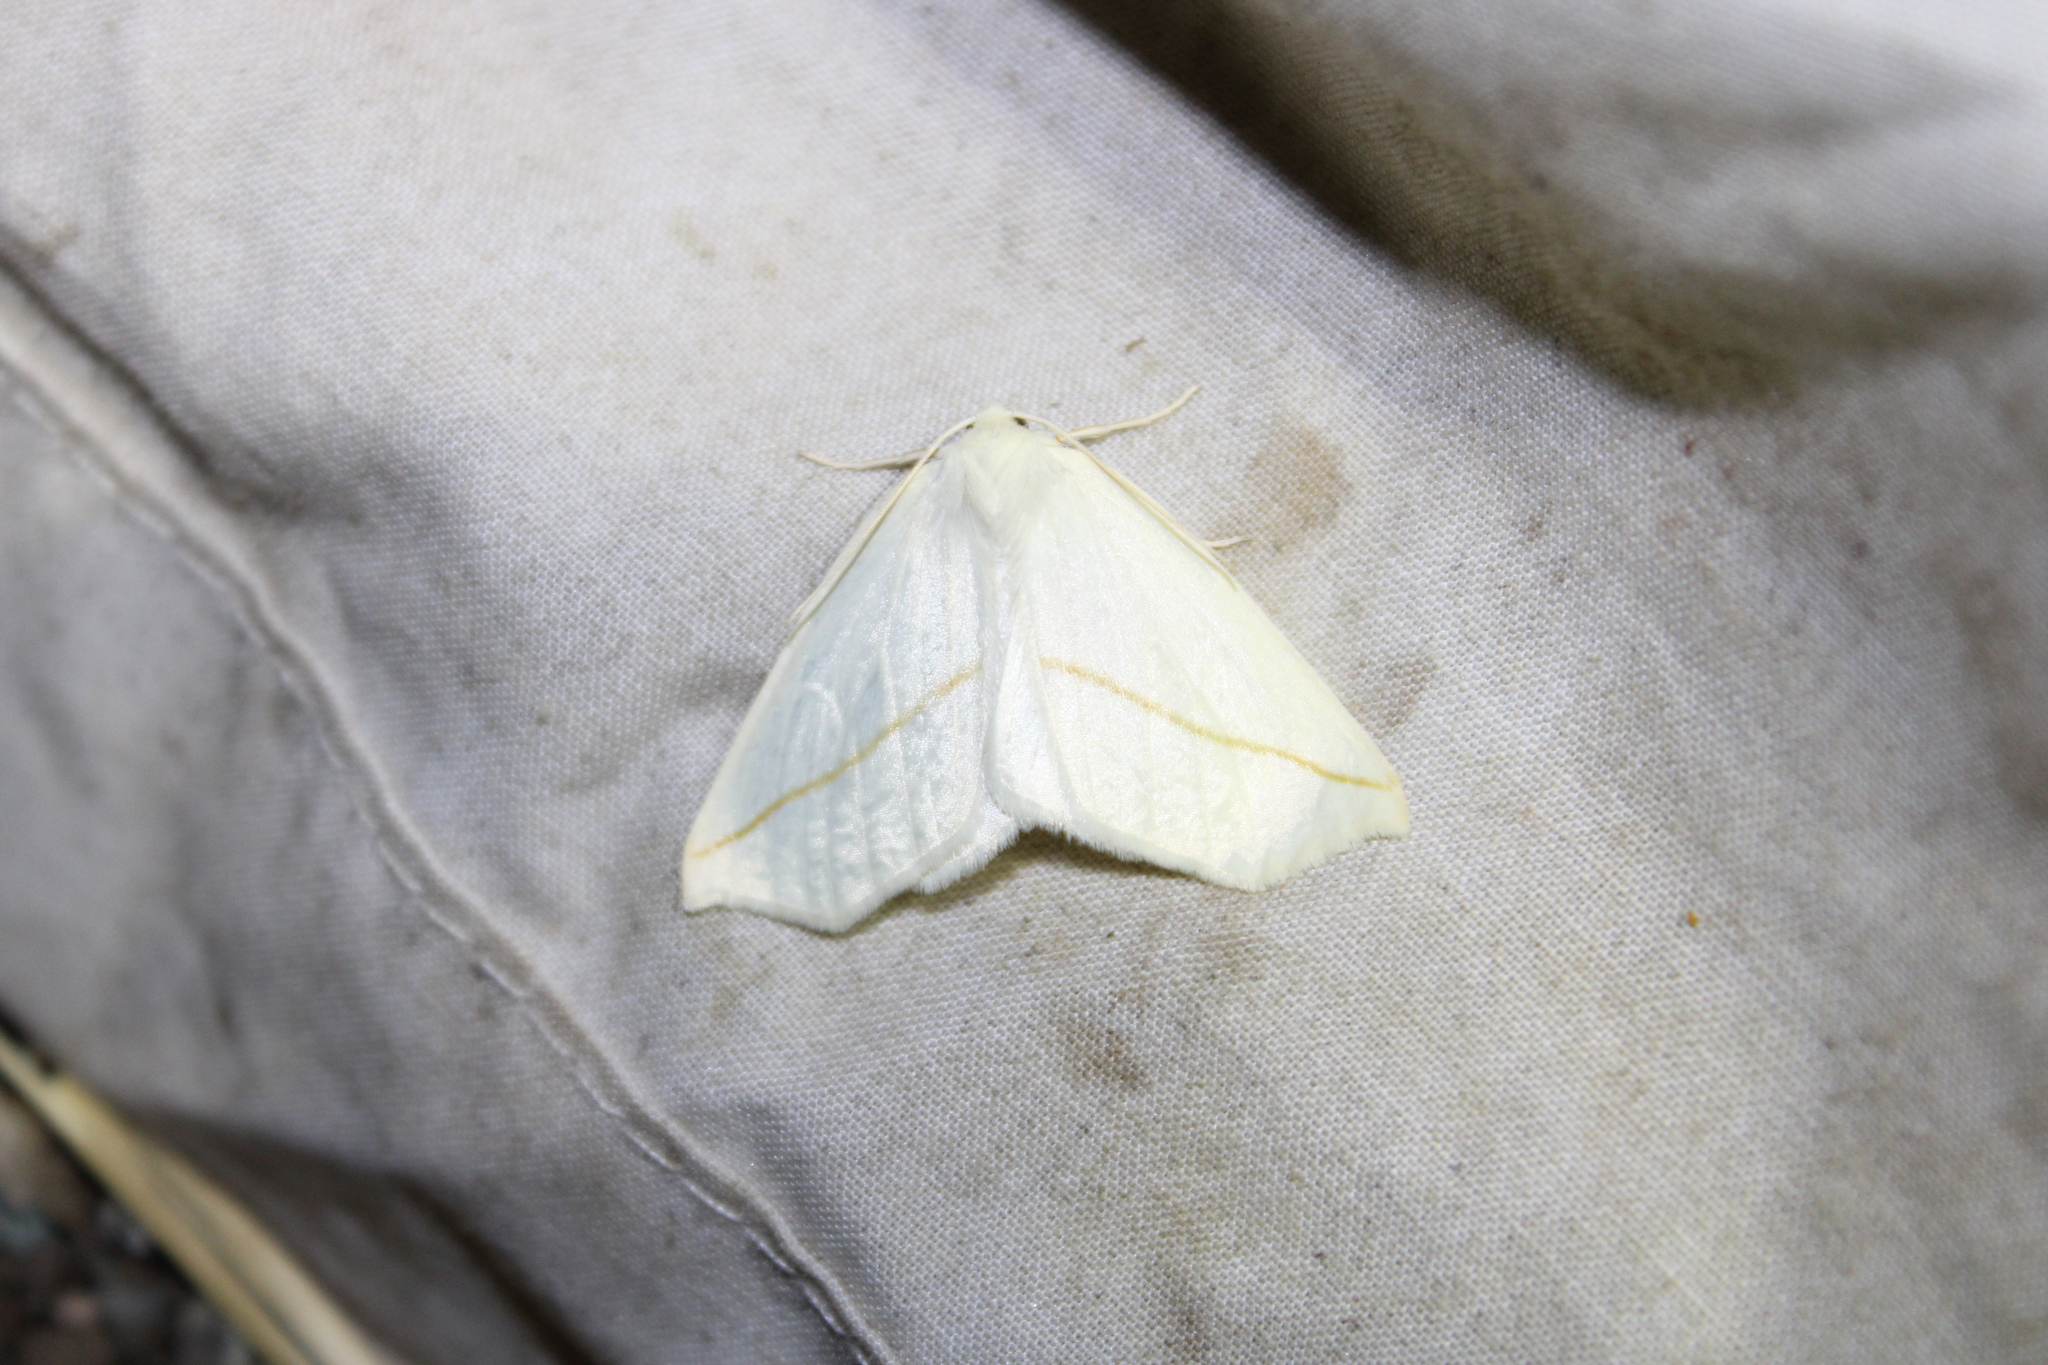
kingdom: Animalia
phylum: Arthropoda
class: Insecta
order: Lepidoptera
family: Geometridae
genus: Tetracis
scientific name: Tetracis cachexiata
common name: White slant-line
